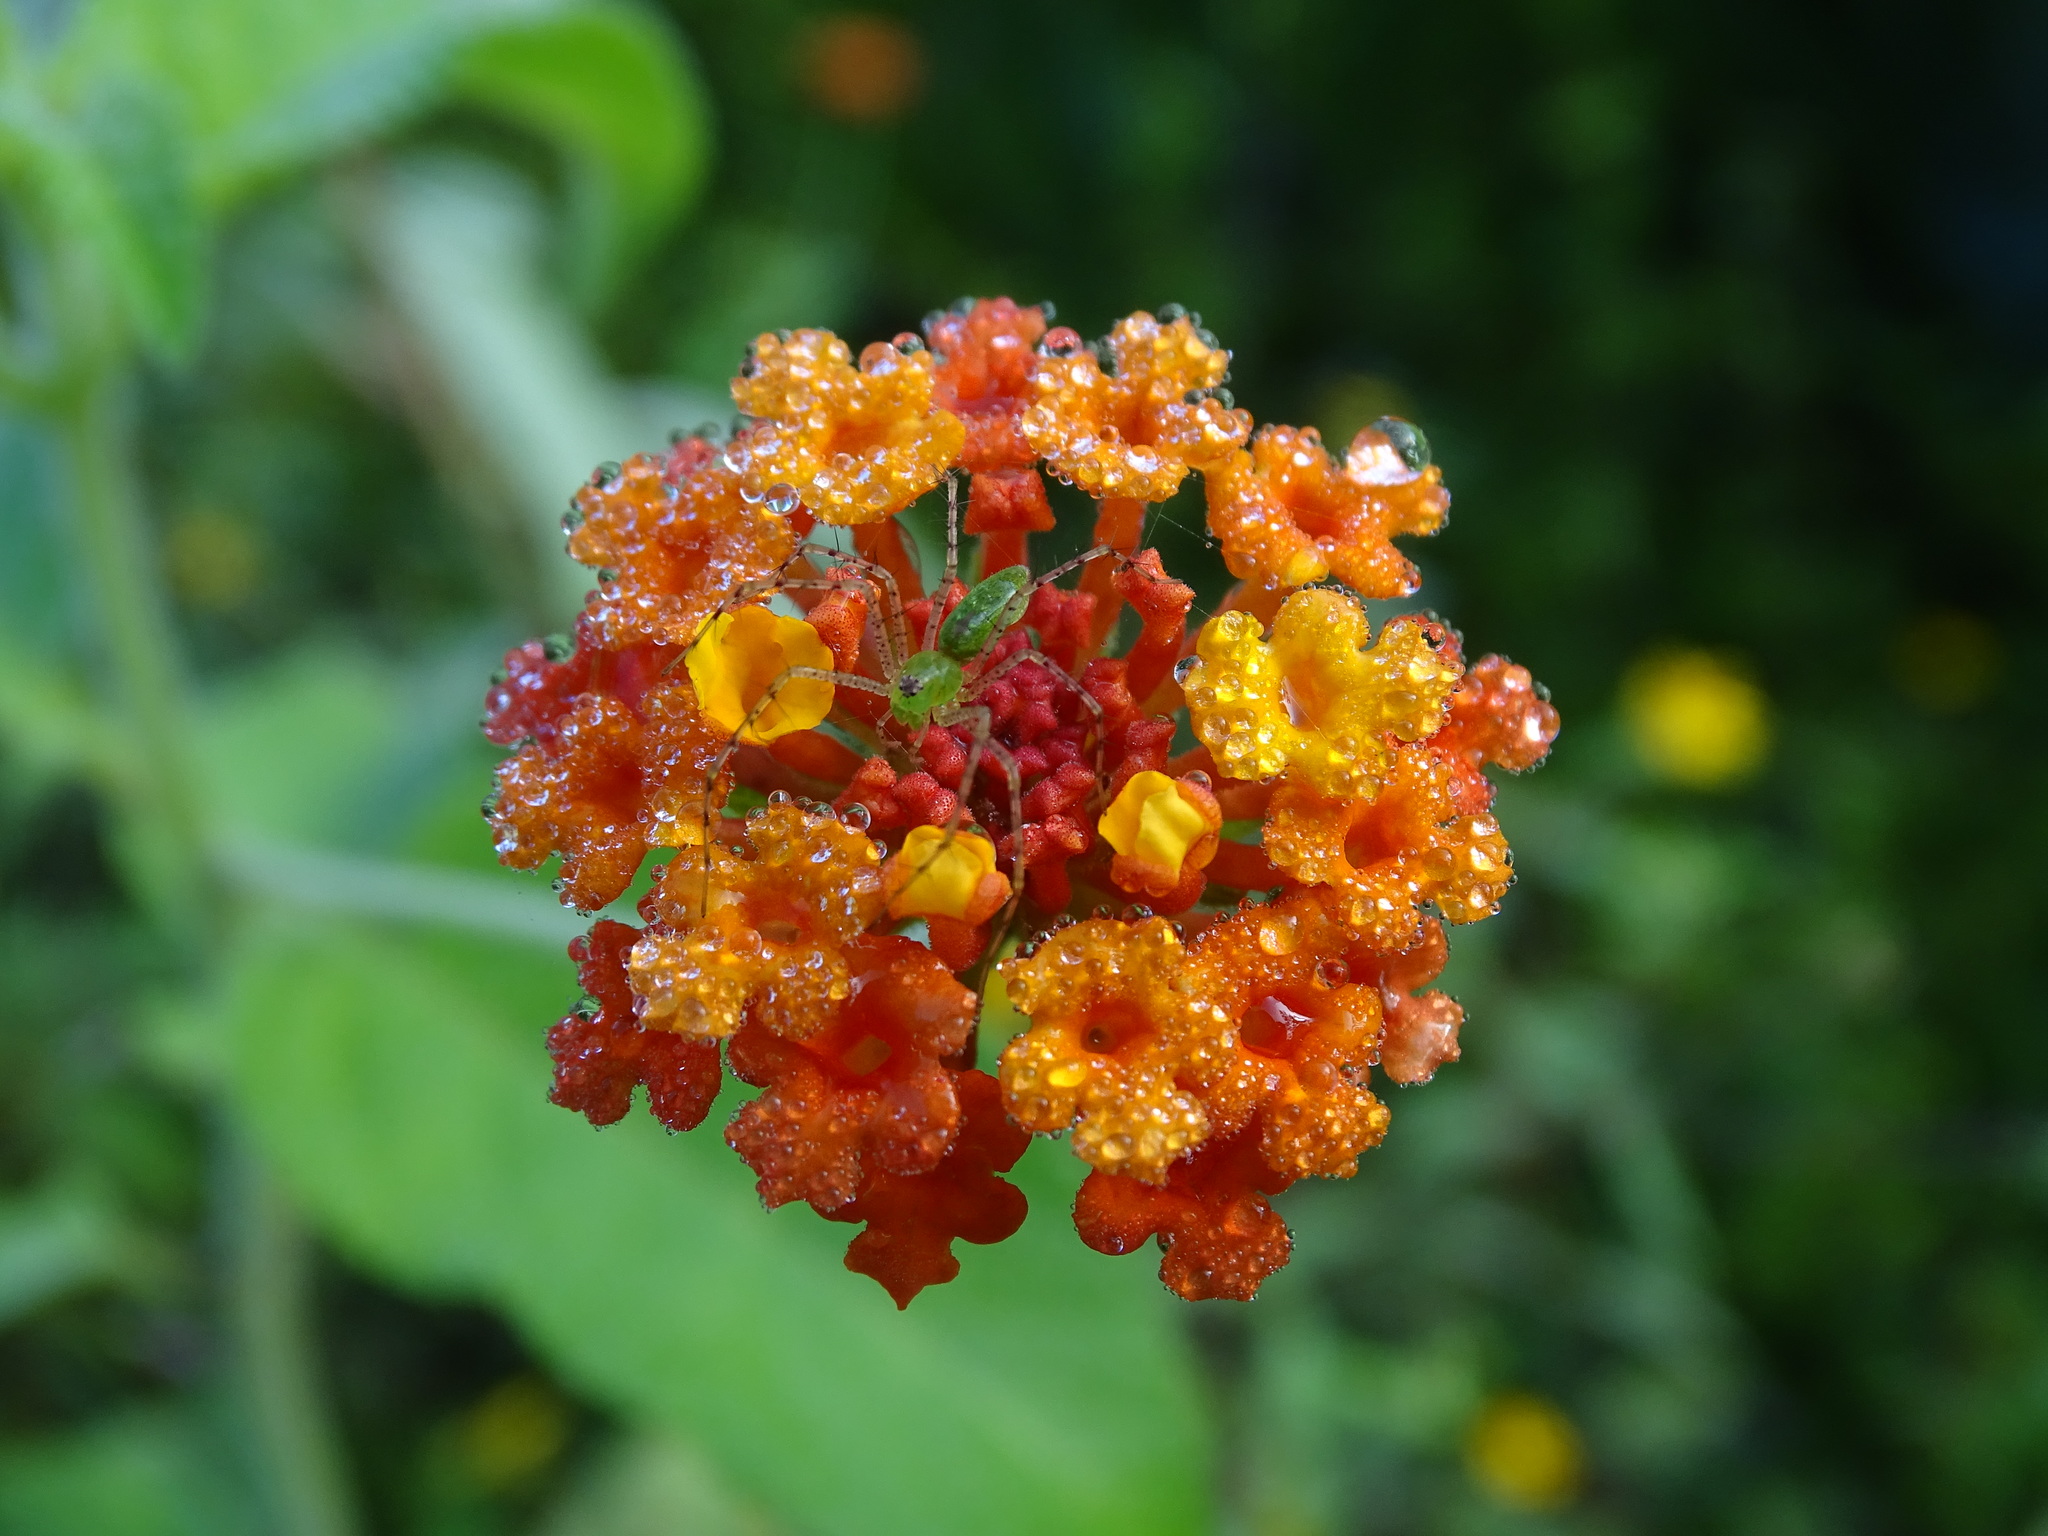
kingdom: Plantae
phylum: Tracheophyta
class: Magnoliopsida
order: Lamiales
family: Verbenaceae
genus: Lantana
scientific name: Lantana camara
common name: Lantana
